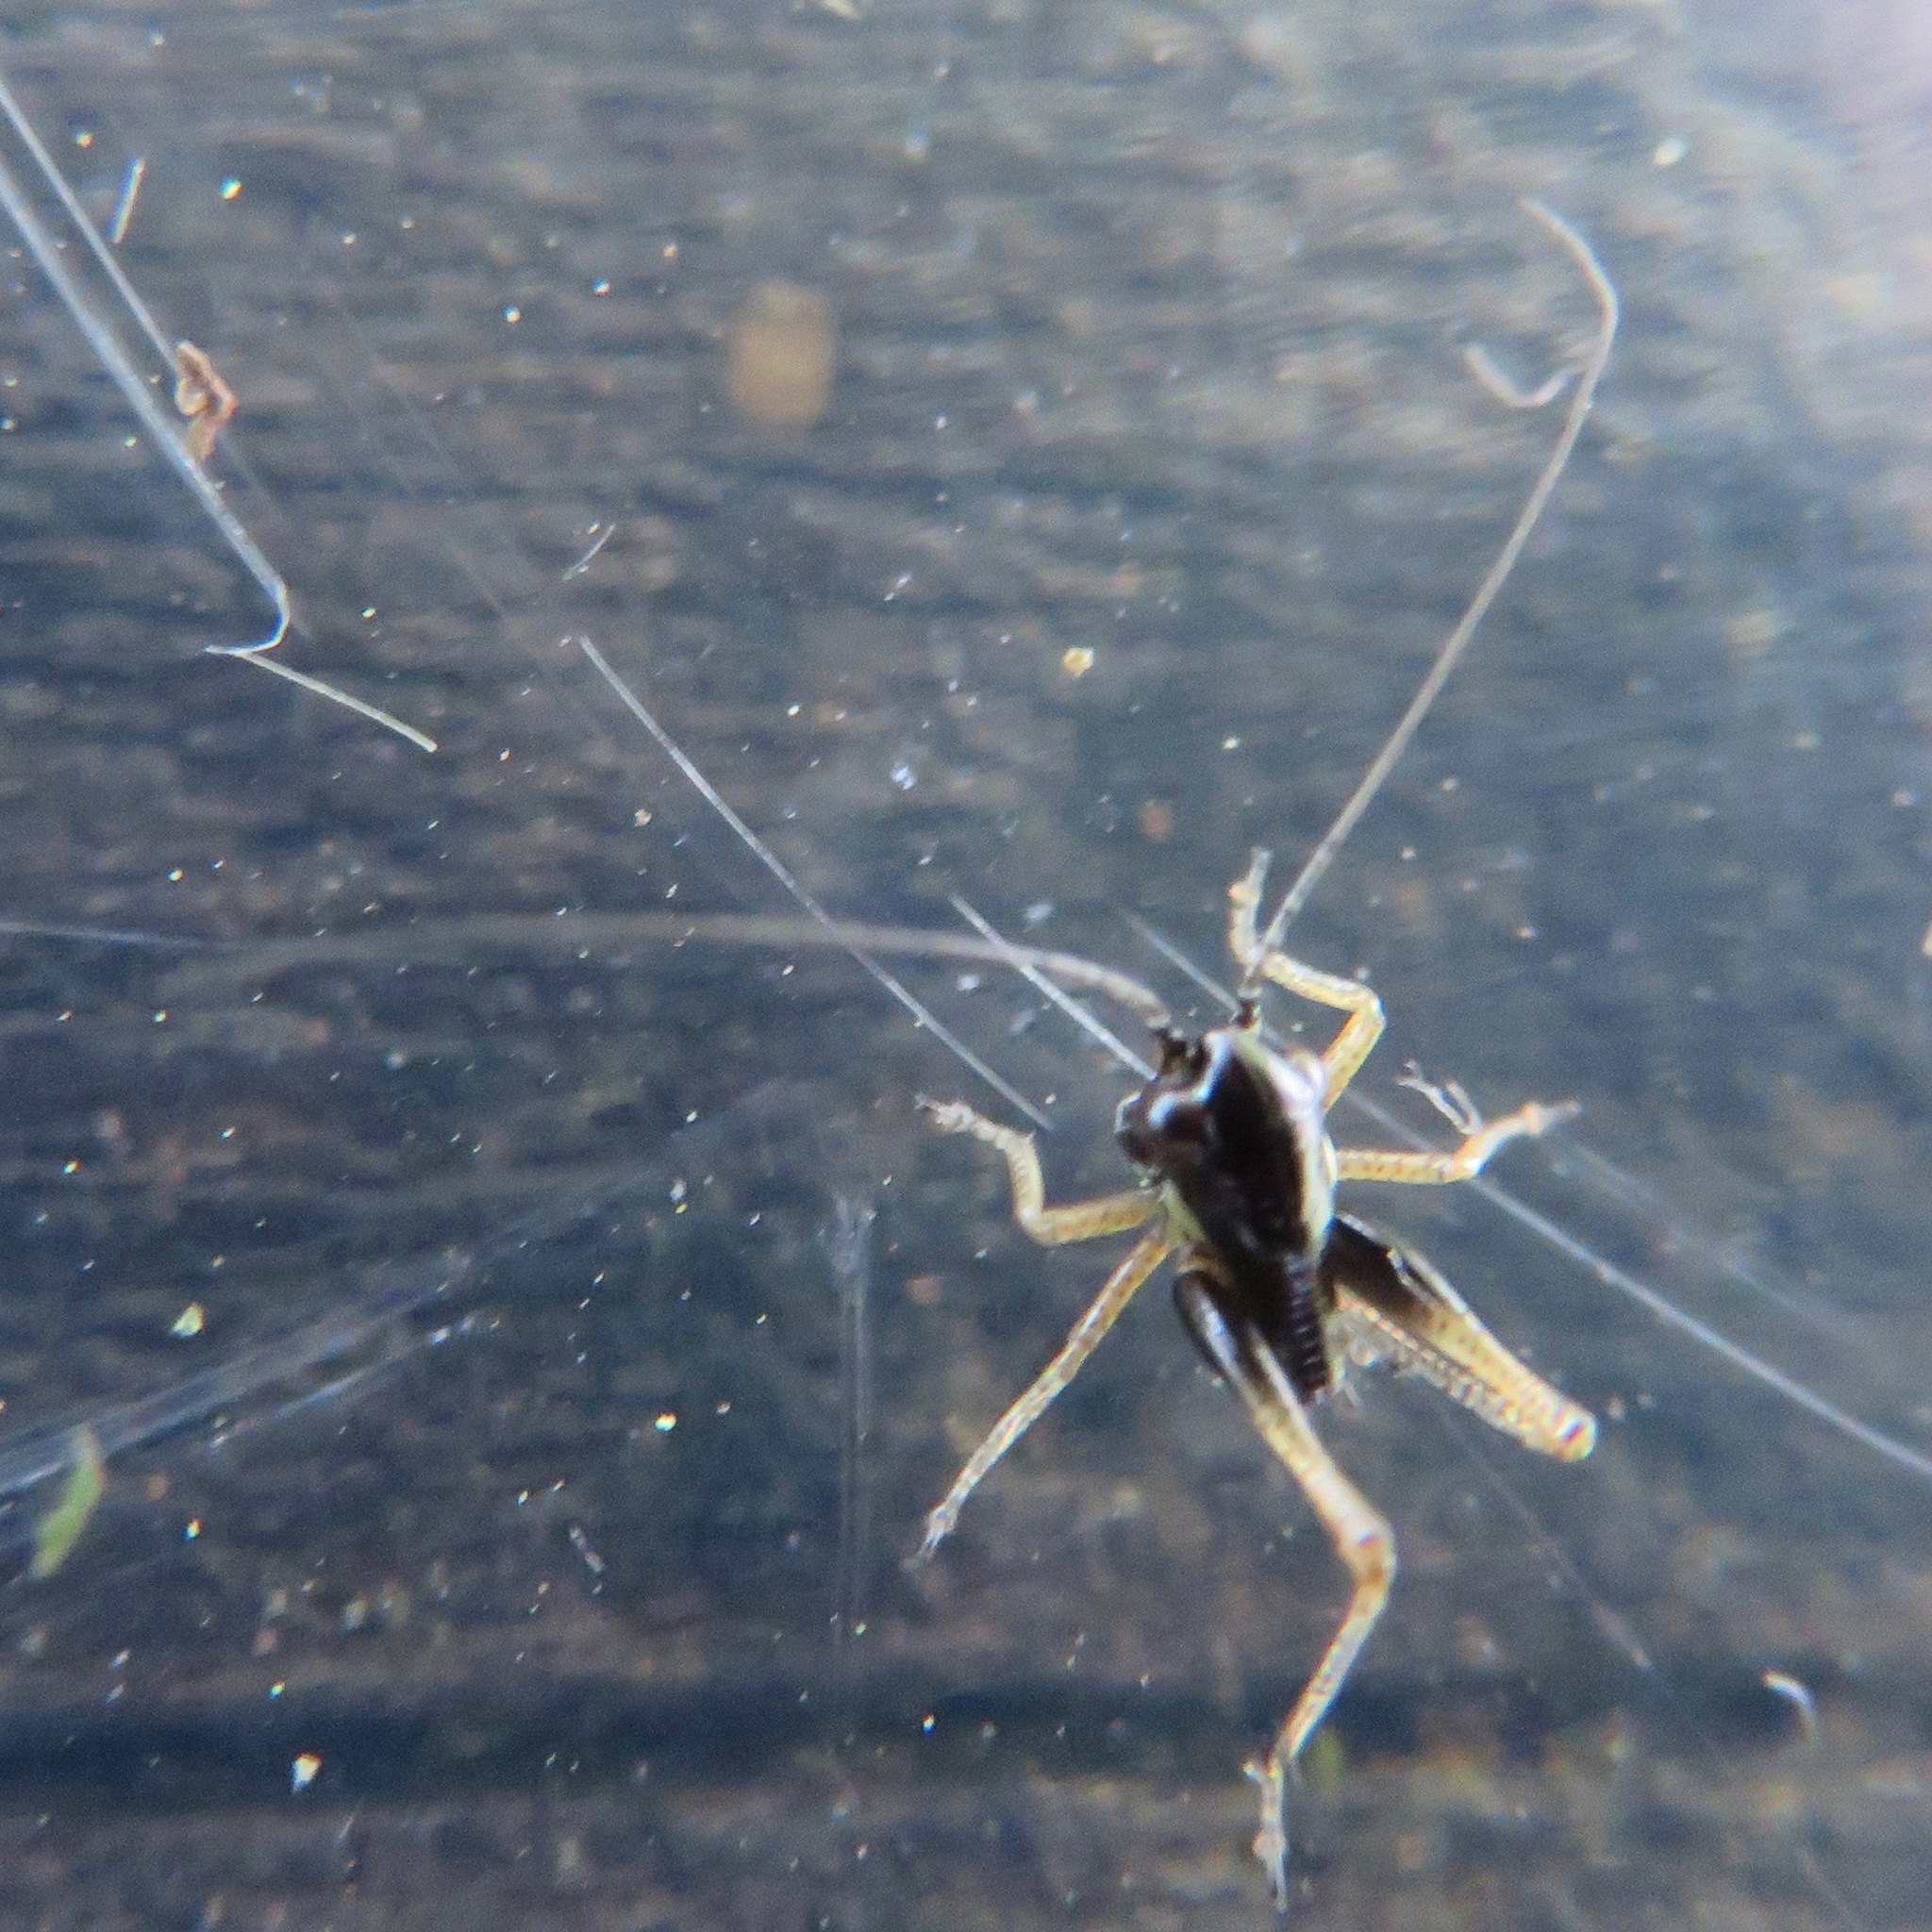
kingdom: Animalia
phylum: Arthropoda
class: Insecta
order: Orthoptera
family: Tettigoniidae
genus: Tessellana
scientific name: Tessellana tessellata
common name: Grasshopper
